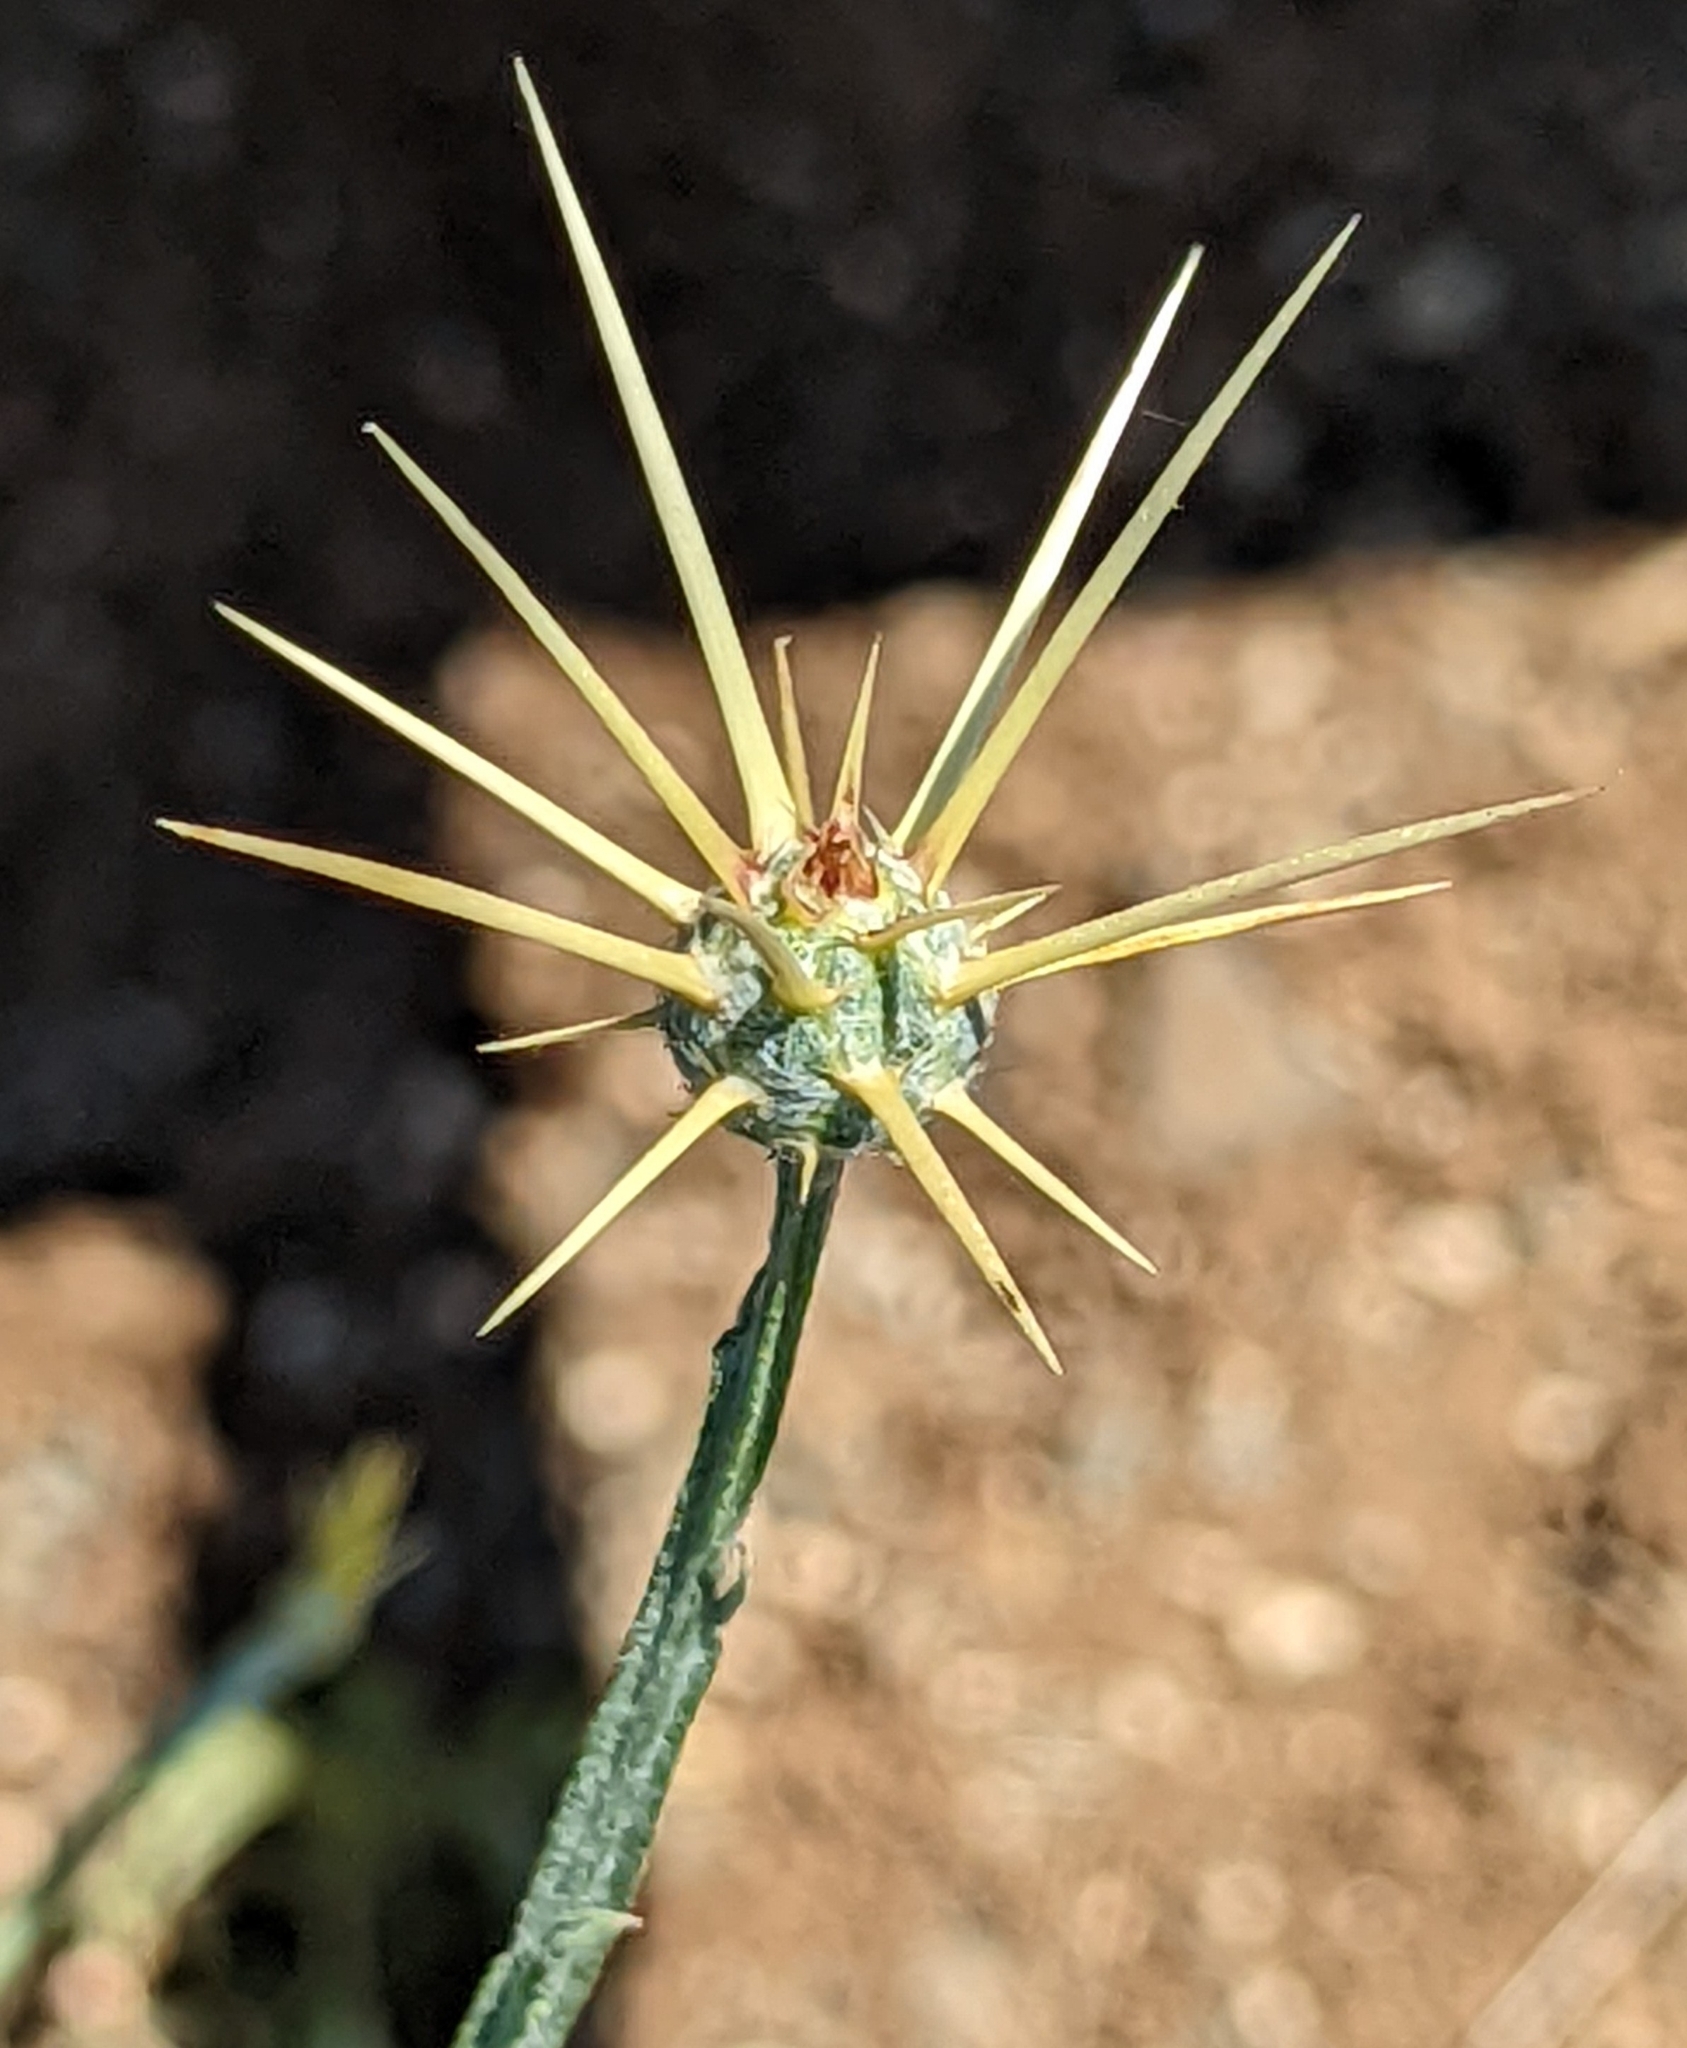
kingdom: Plantae
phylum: Tracheophyta
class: Magnoliopsida
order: Asterales
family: Asteraceae
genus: Centaurea
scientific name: Centaurea solstitialis
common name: Yellow star-thistle
